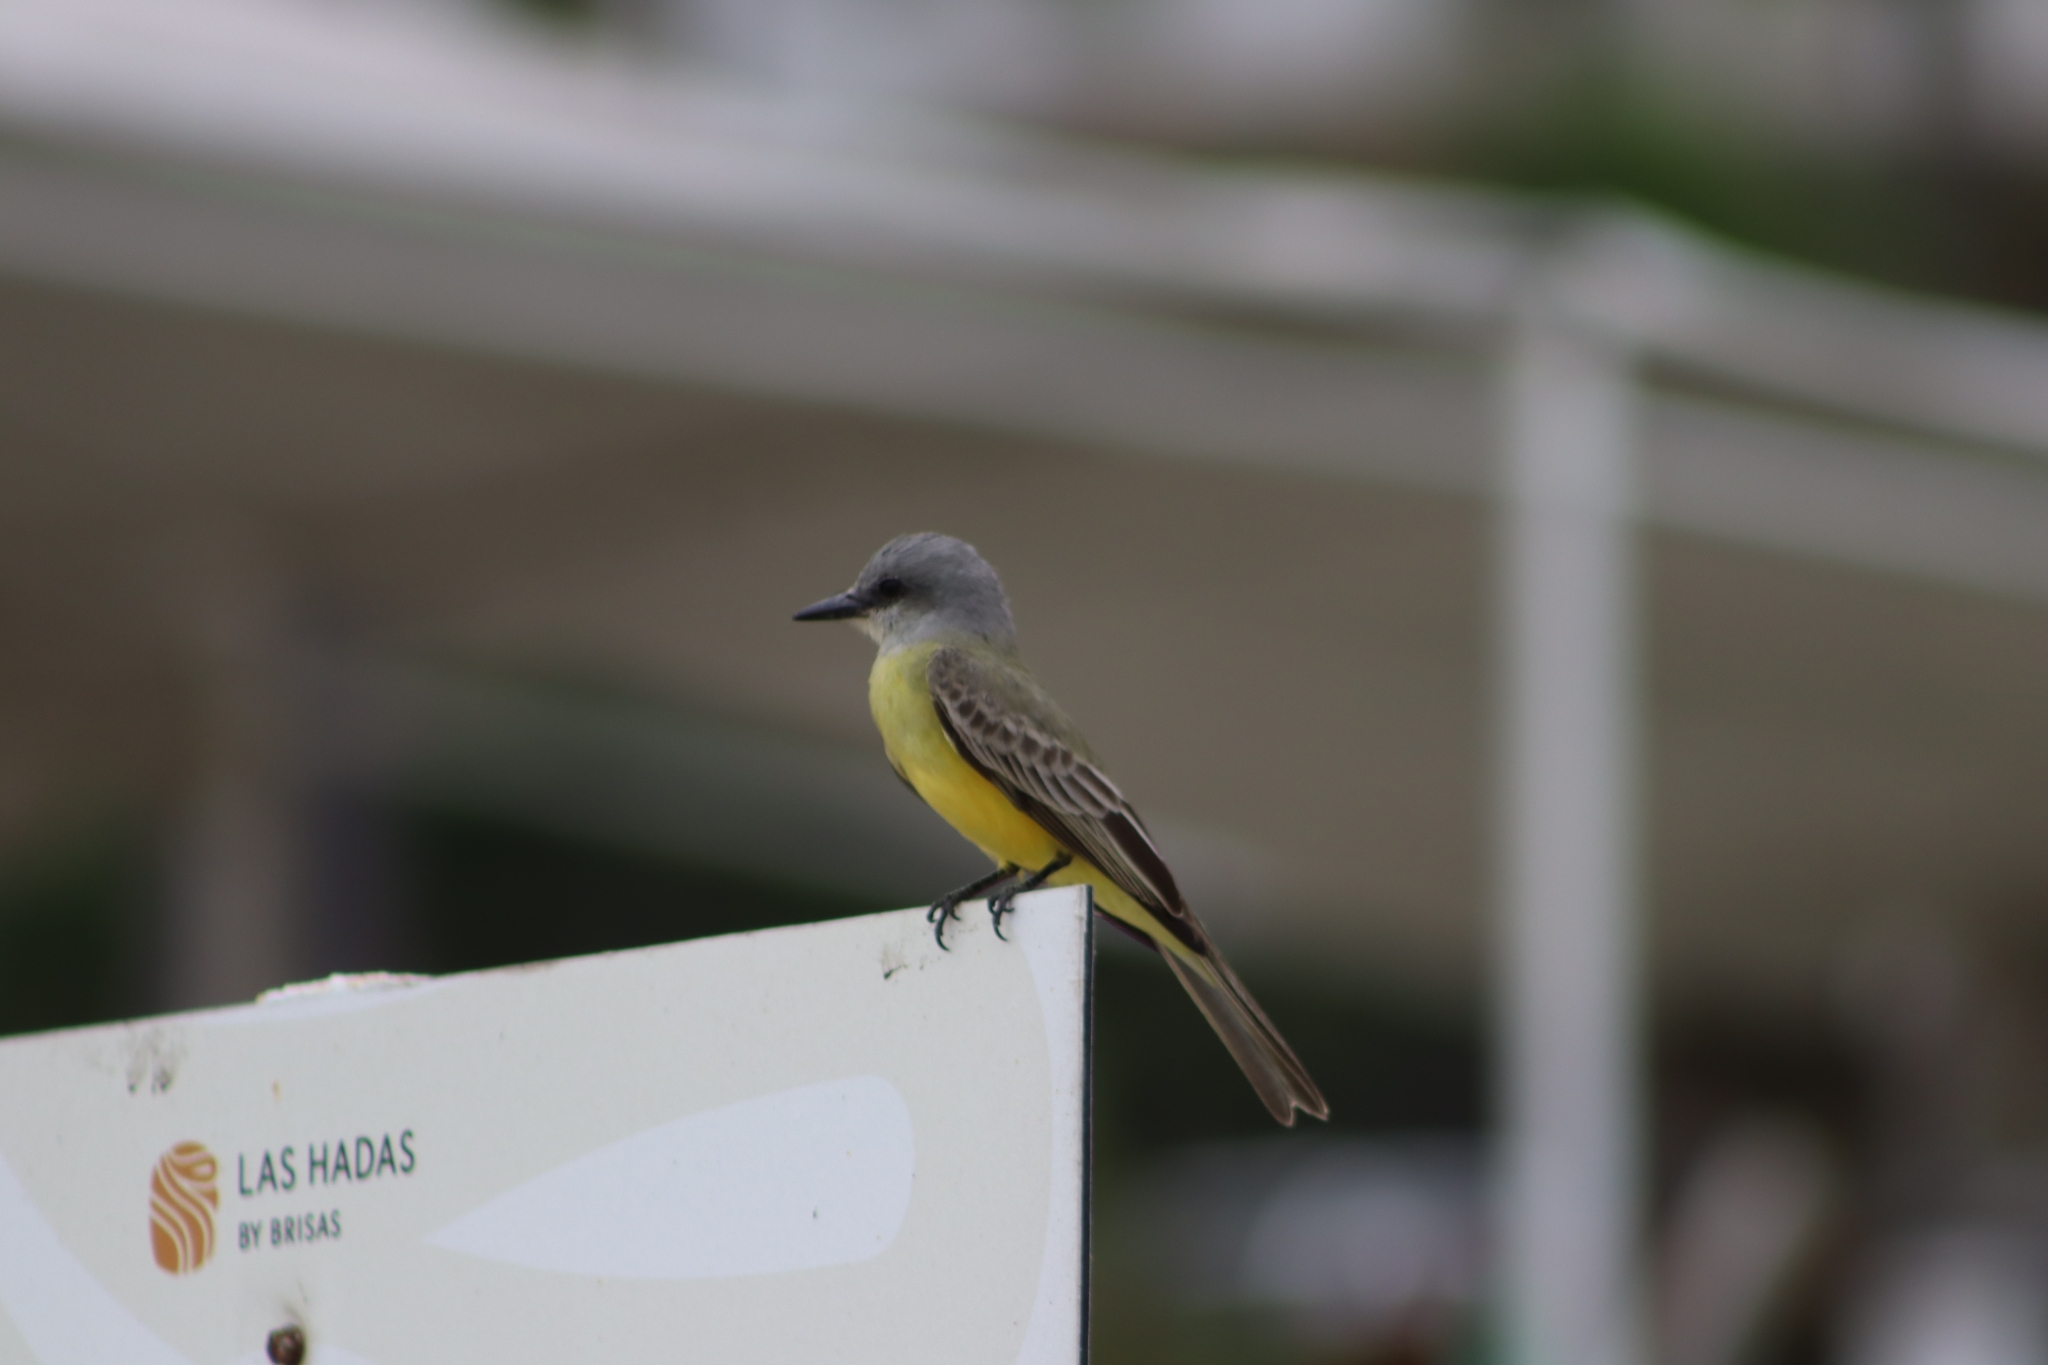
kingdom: Animalia
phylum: Chordata
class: Aves
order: Passeriformes
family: Tyrannidae
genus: Tyrannus
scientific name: Tyrannus melancholicus
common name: Tropical kingbird
